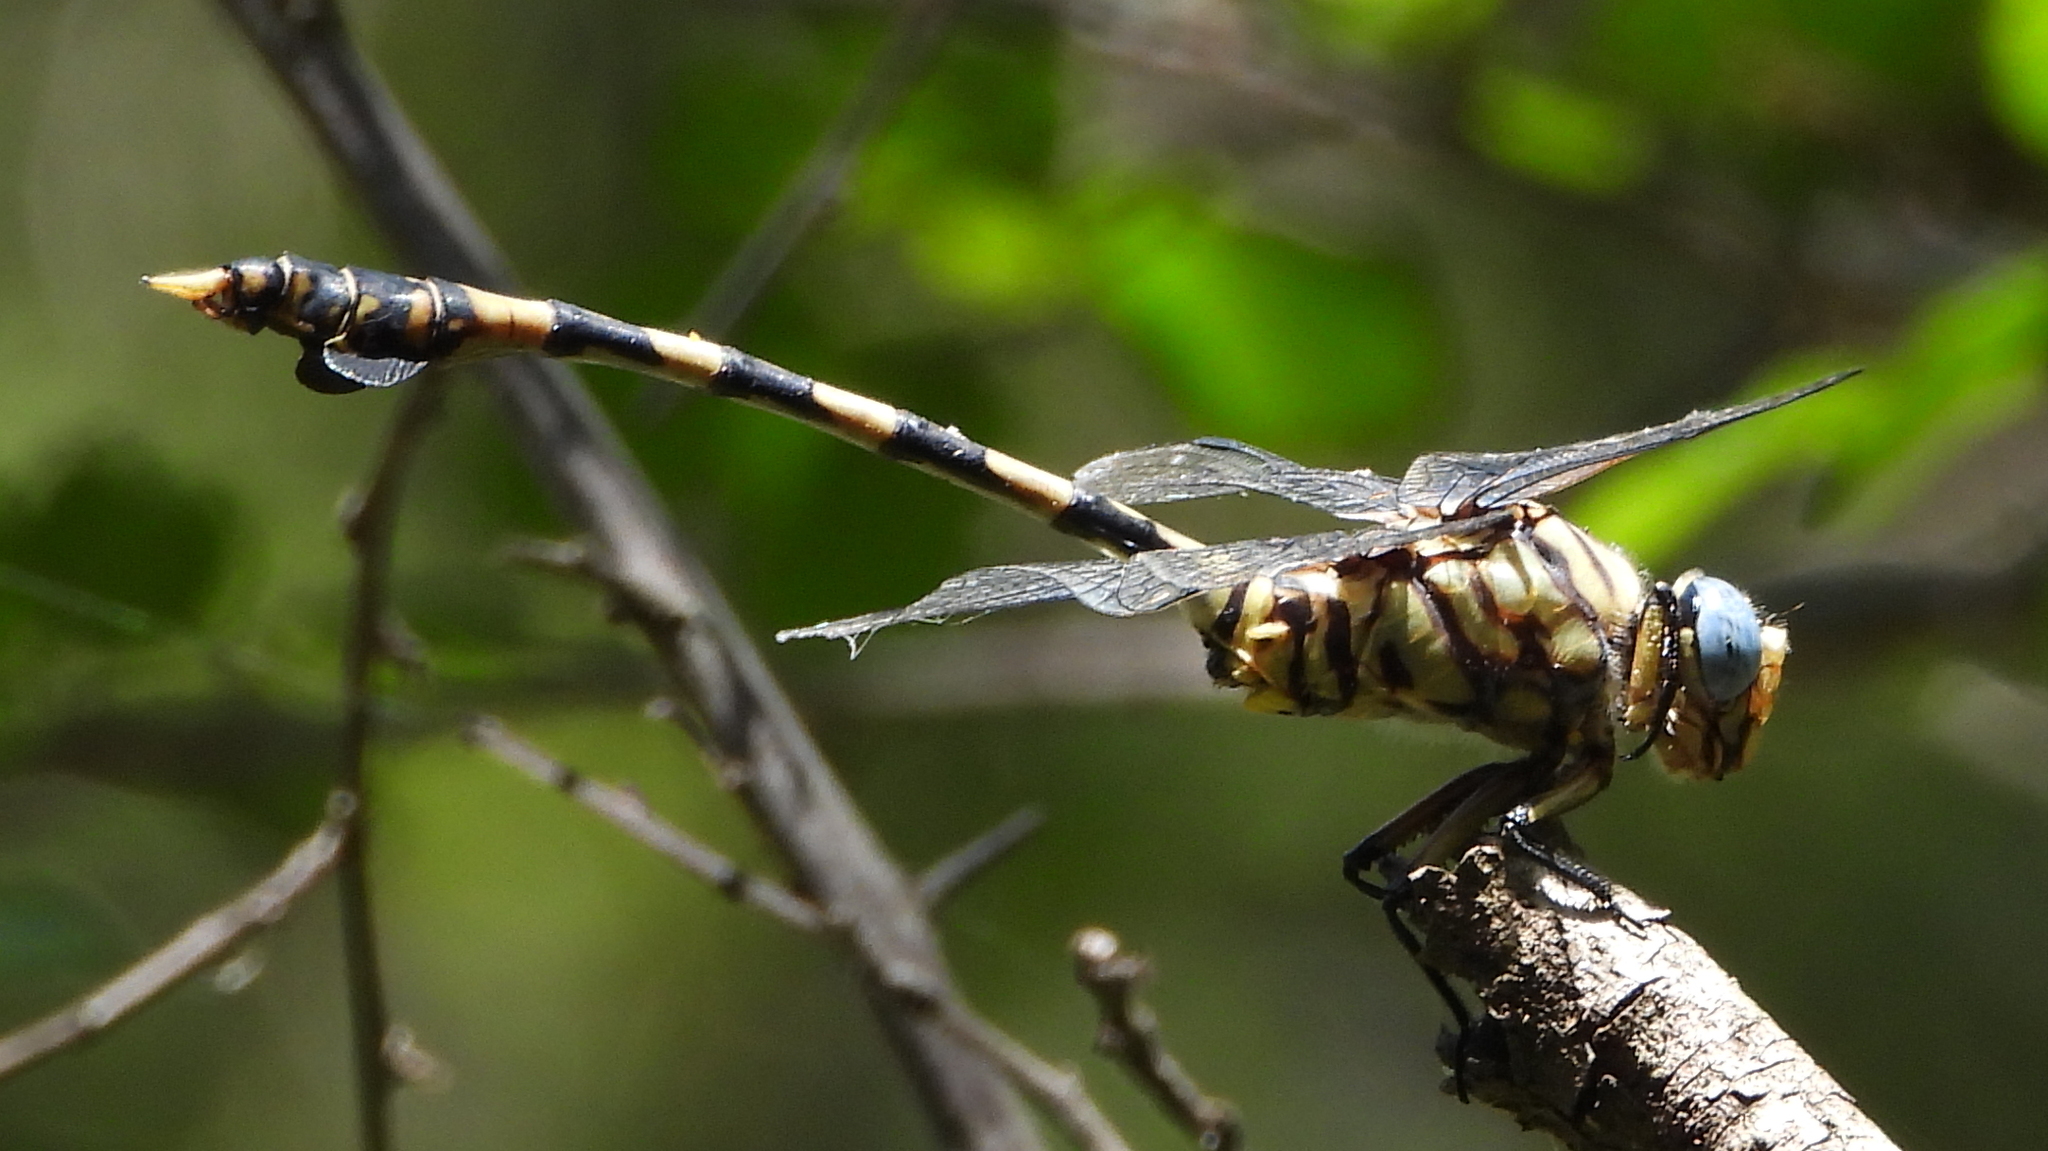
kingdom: Animalia
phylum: Arthropoda
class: Insecta
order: Odonata
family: Gomphidae
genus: Ictinogomphus
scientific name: Ictinogomphus ferox
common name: Common tiger
